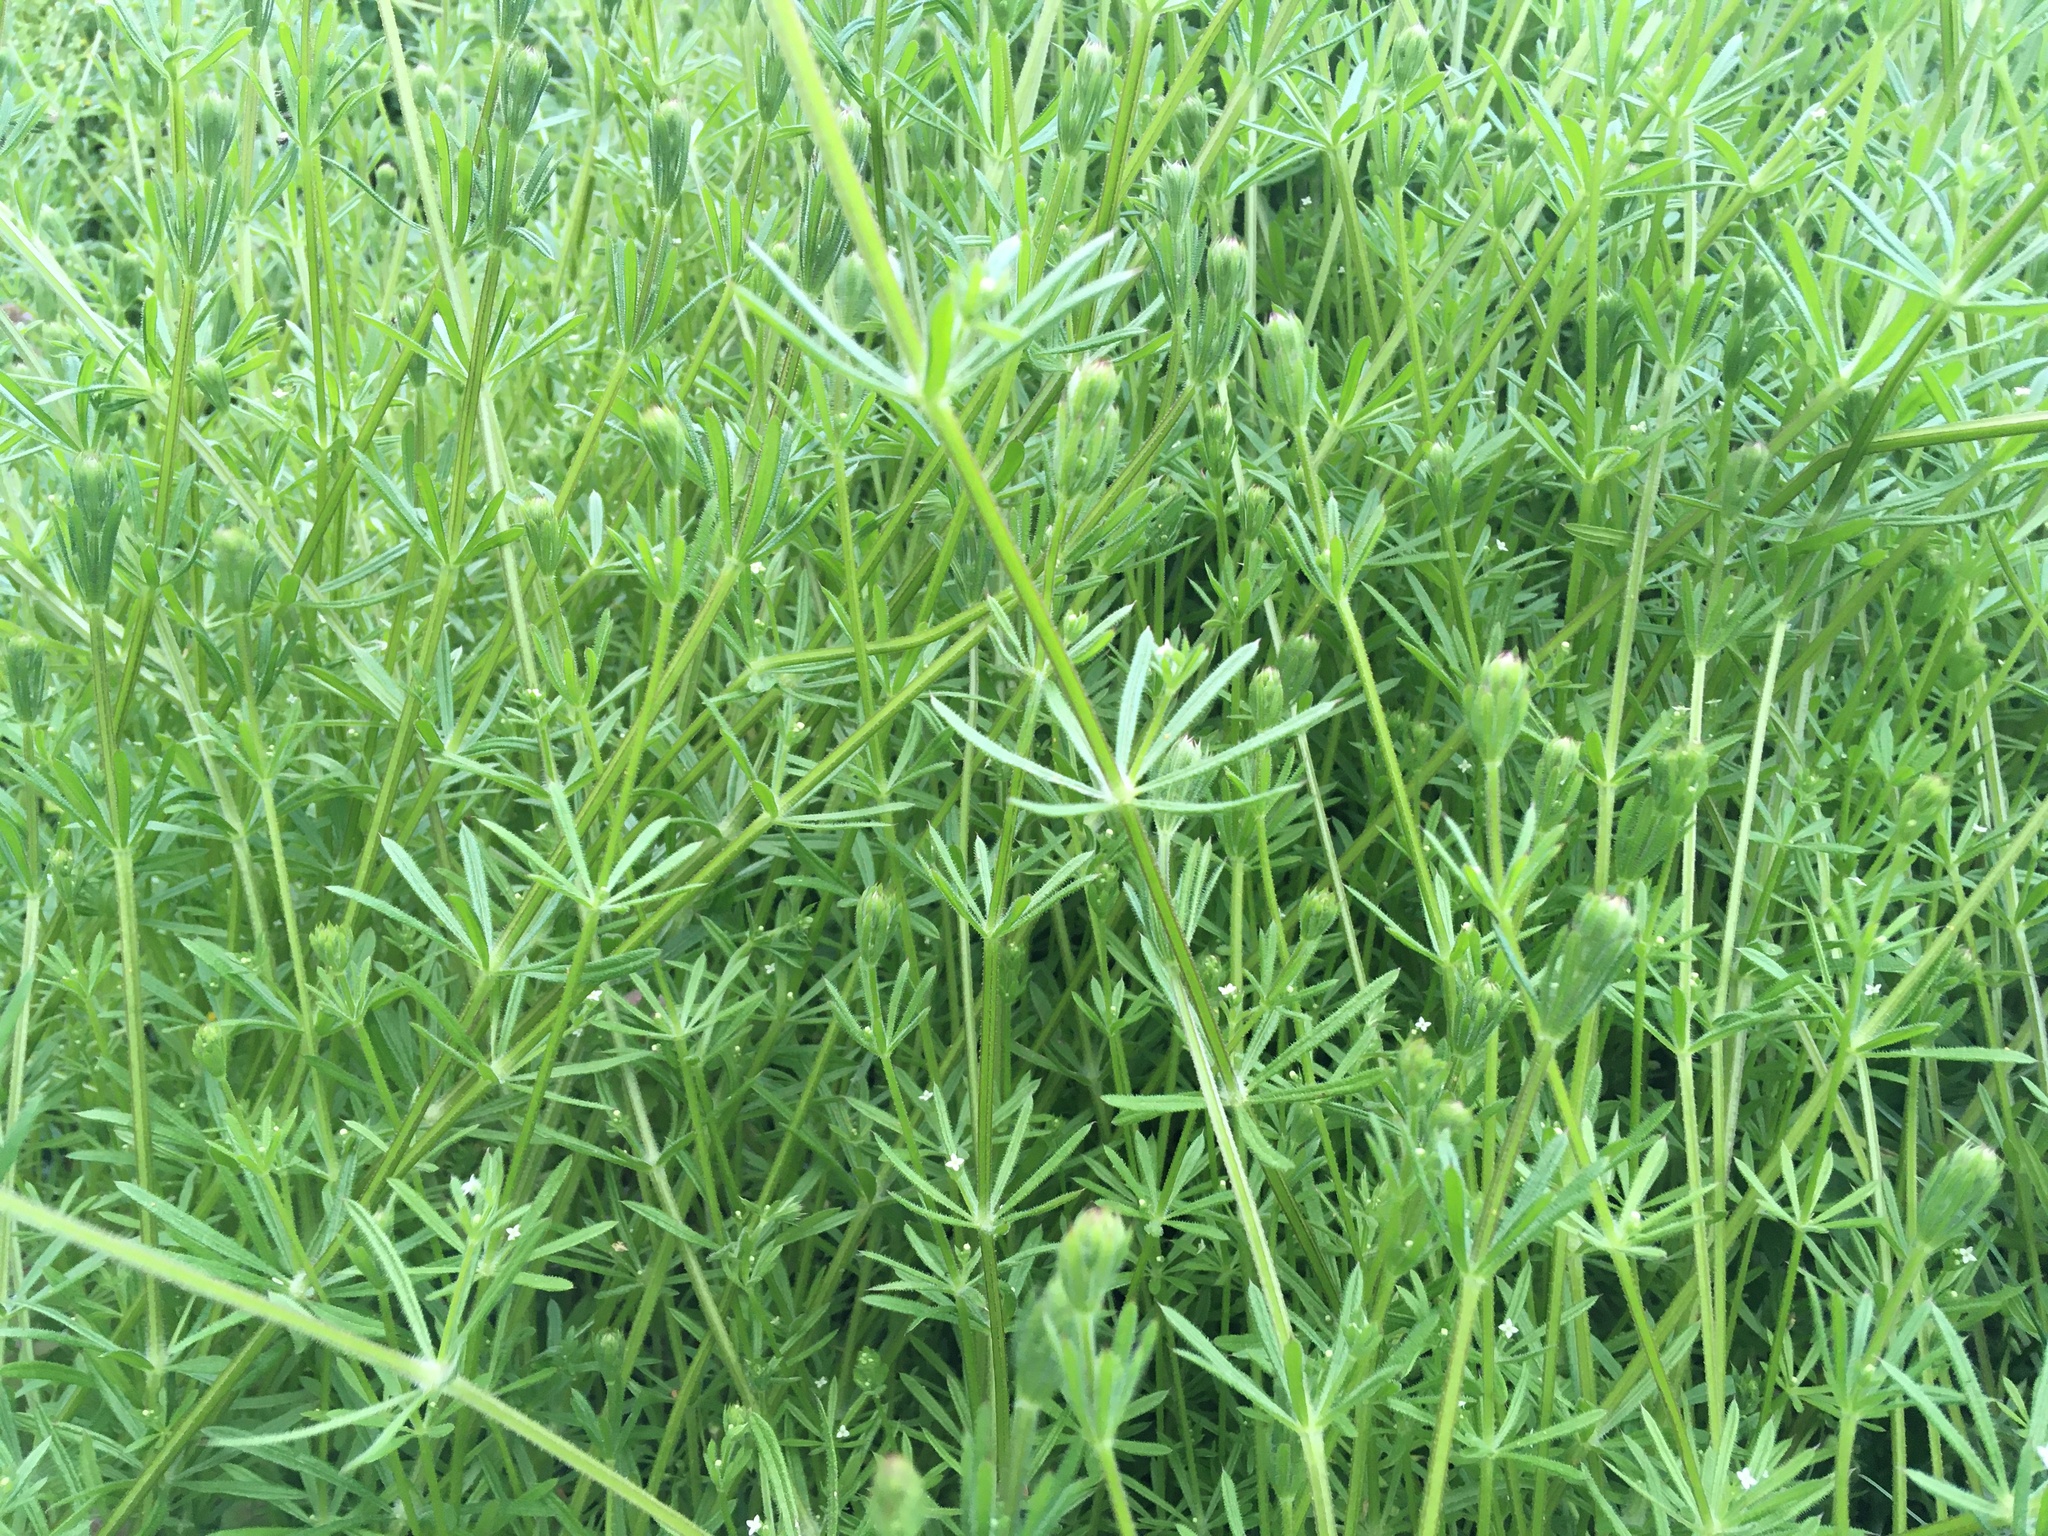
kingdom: Plantae
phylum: Tracheophyta
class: Magnoliopsida
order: Gentianales
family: Rubiaceae
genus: Galium
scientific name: Galium aparine
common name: Cleavers
